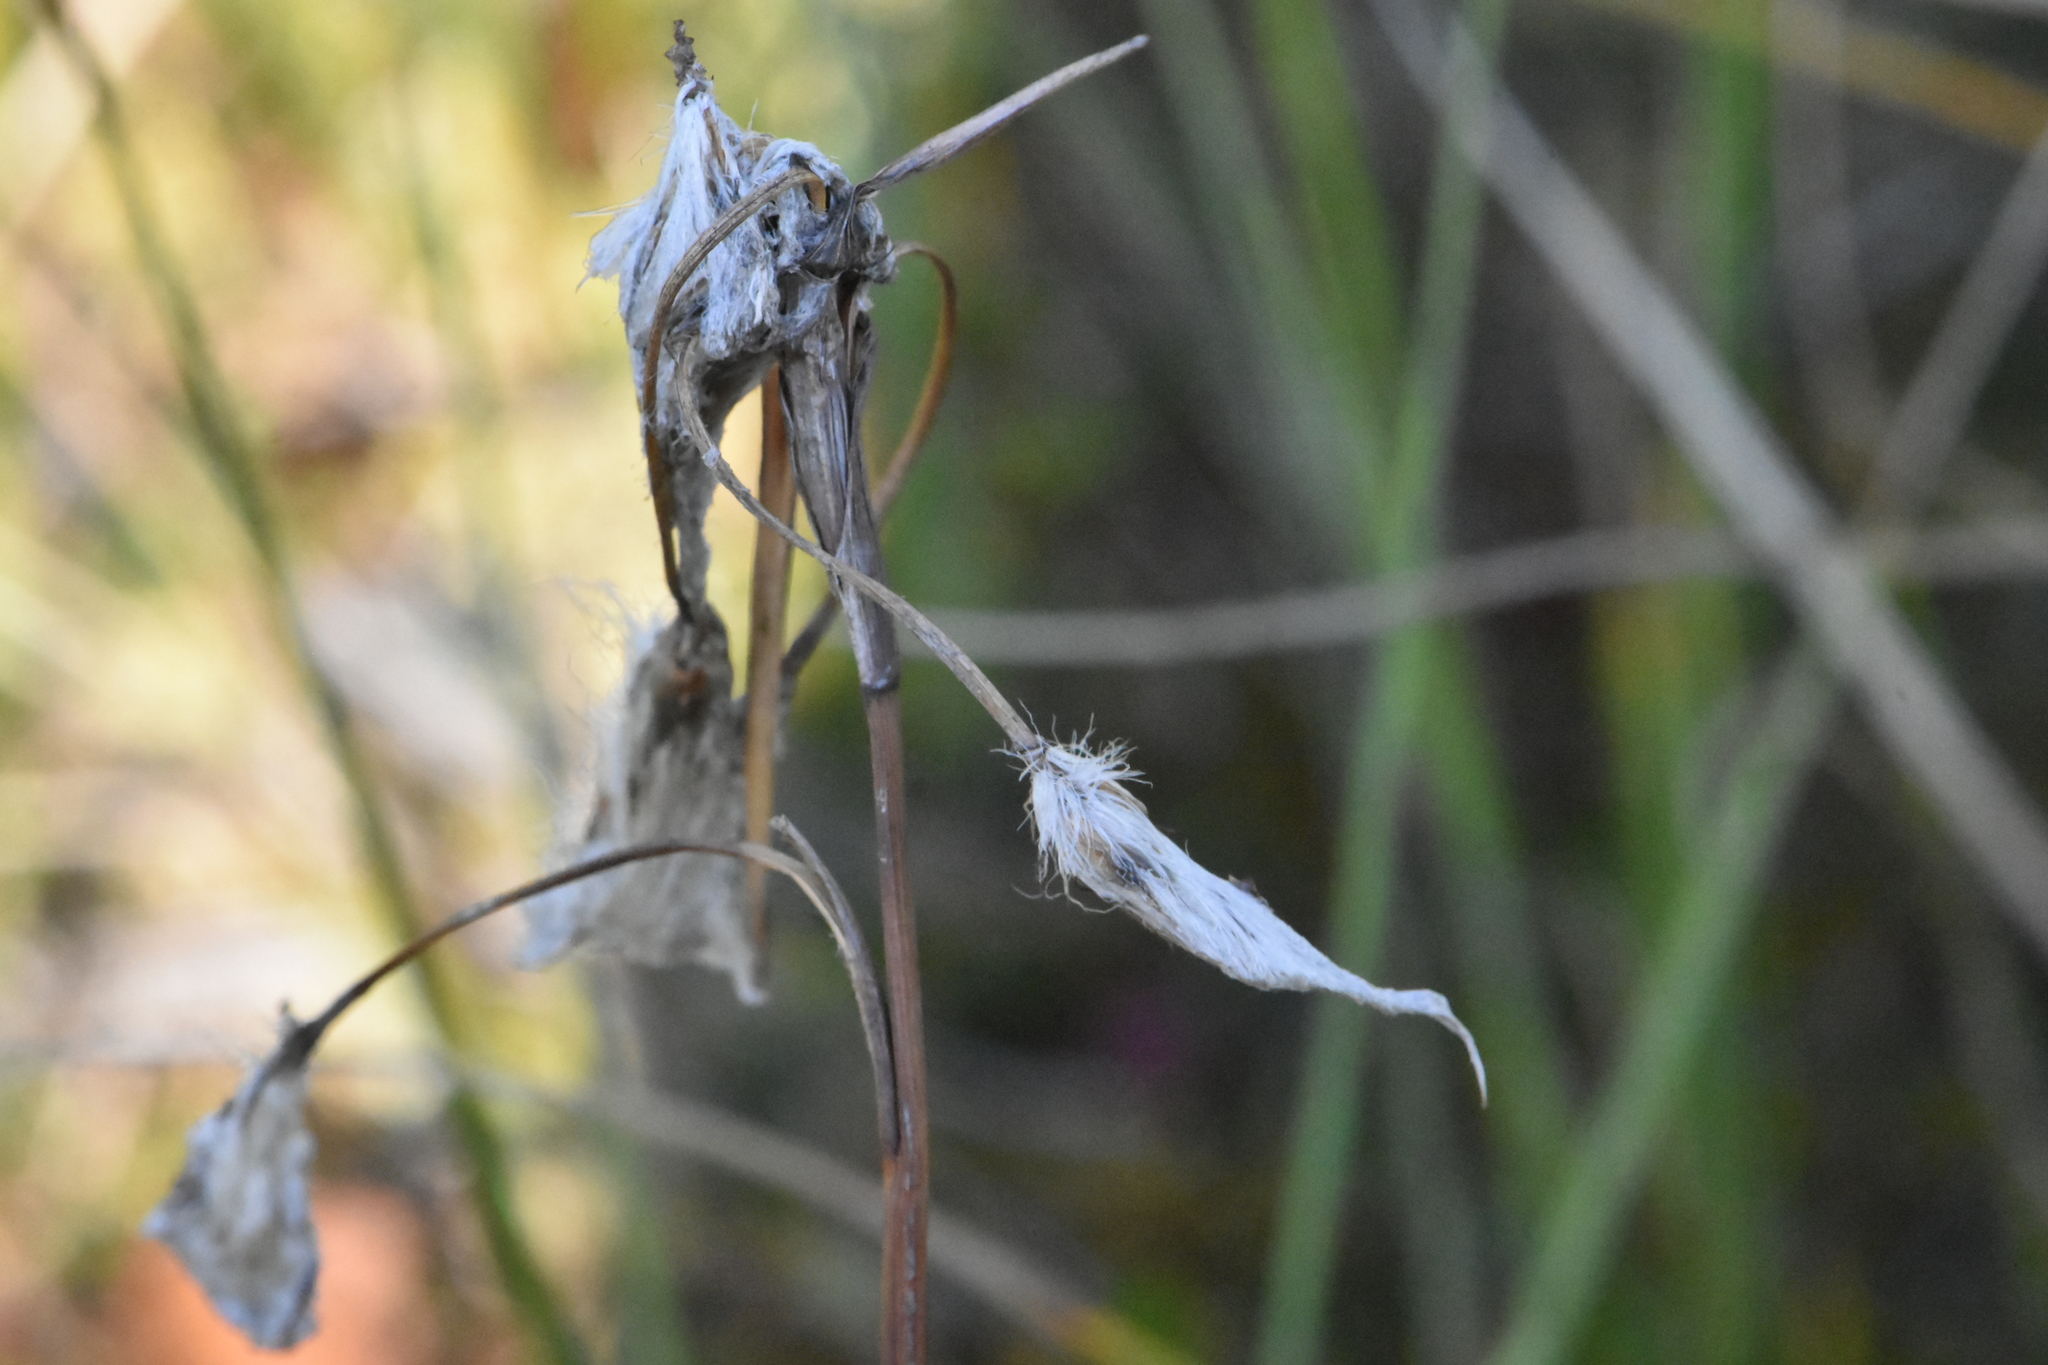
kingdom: Plantae
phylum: Tracheophyta
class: Liliopsida
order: Poales
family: Cyperaceae
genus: Eriophorum
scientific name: Eriophorum angustifolium
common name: Common cottongrass
